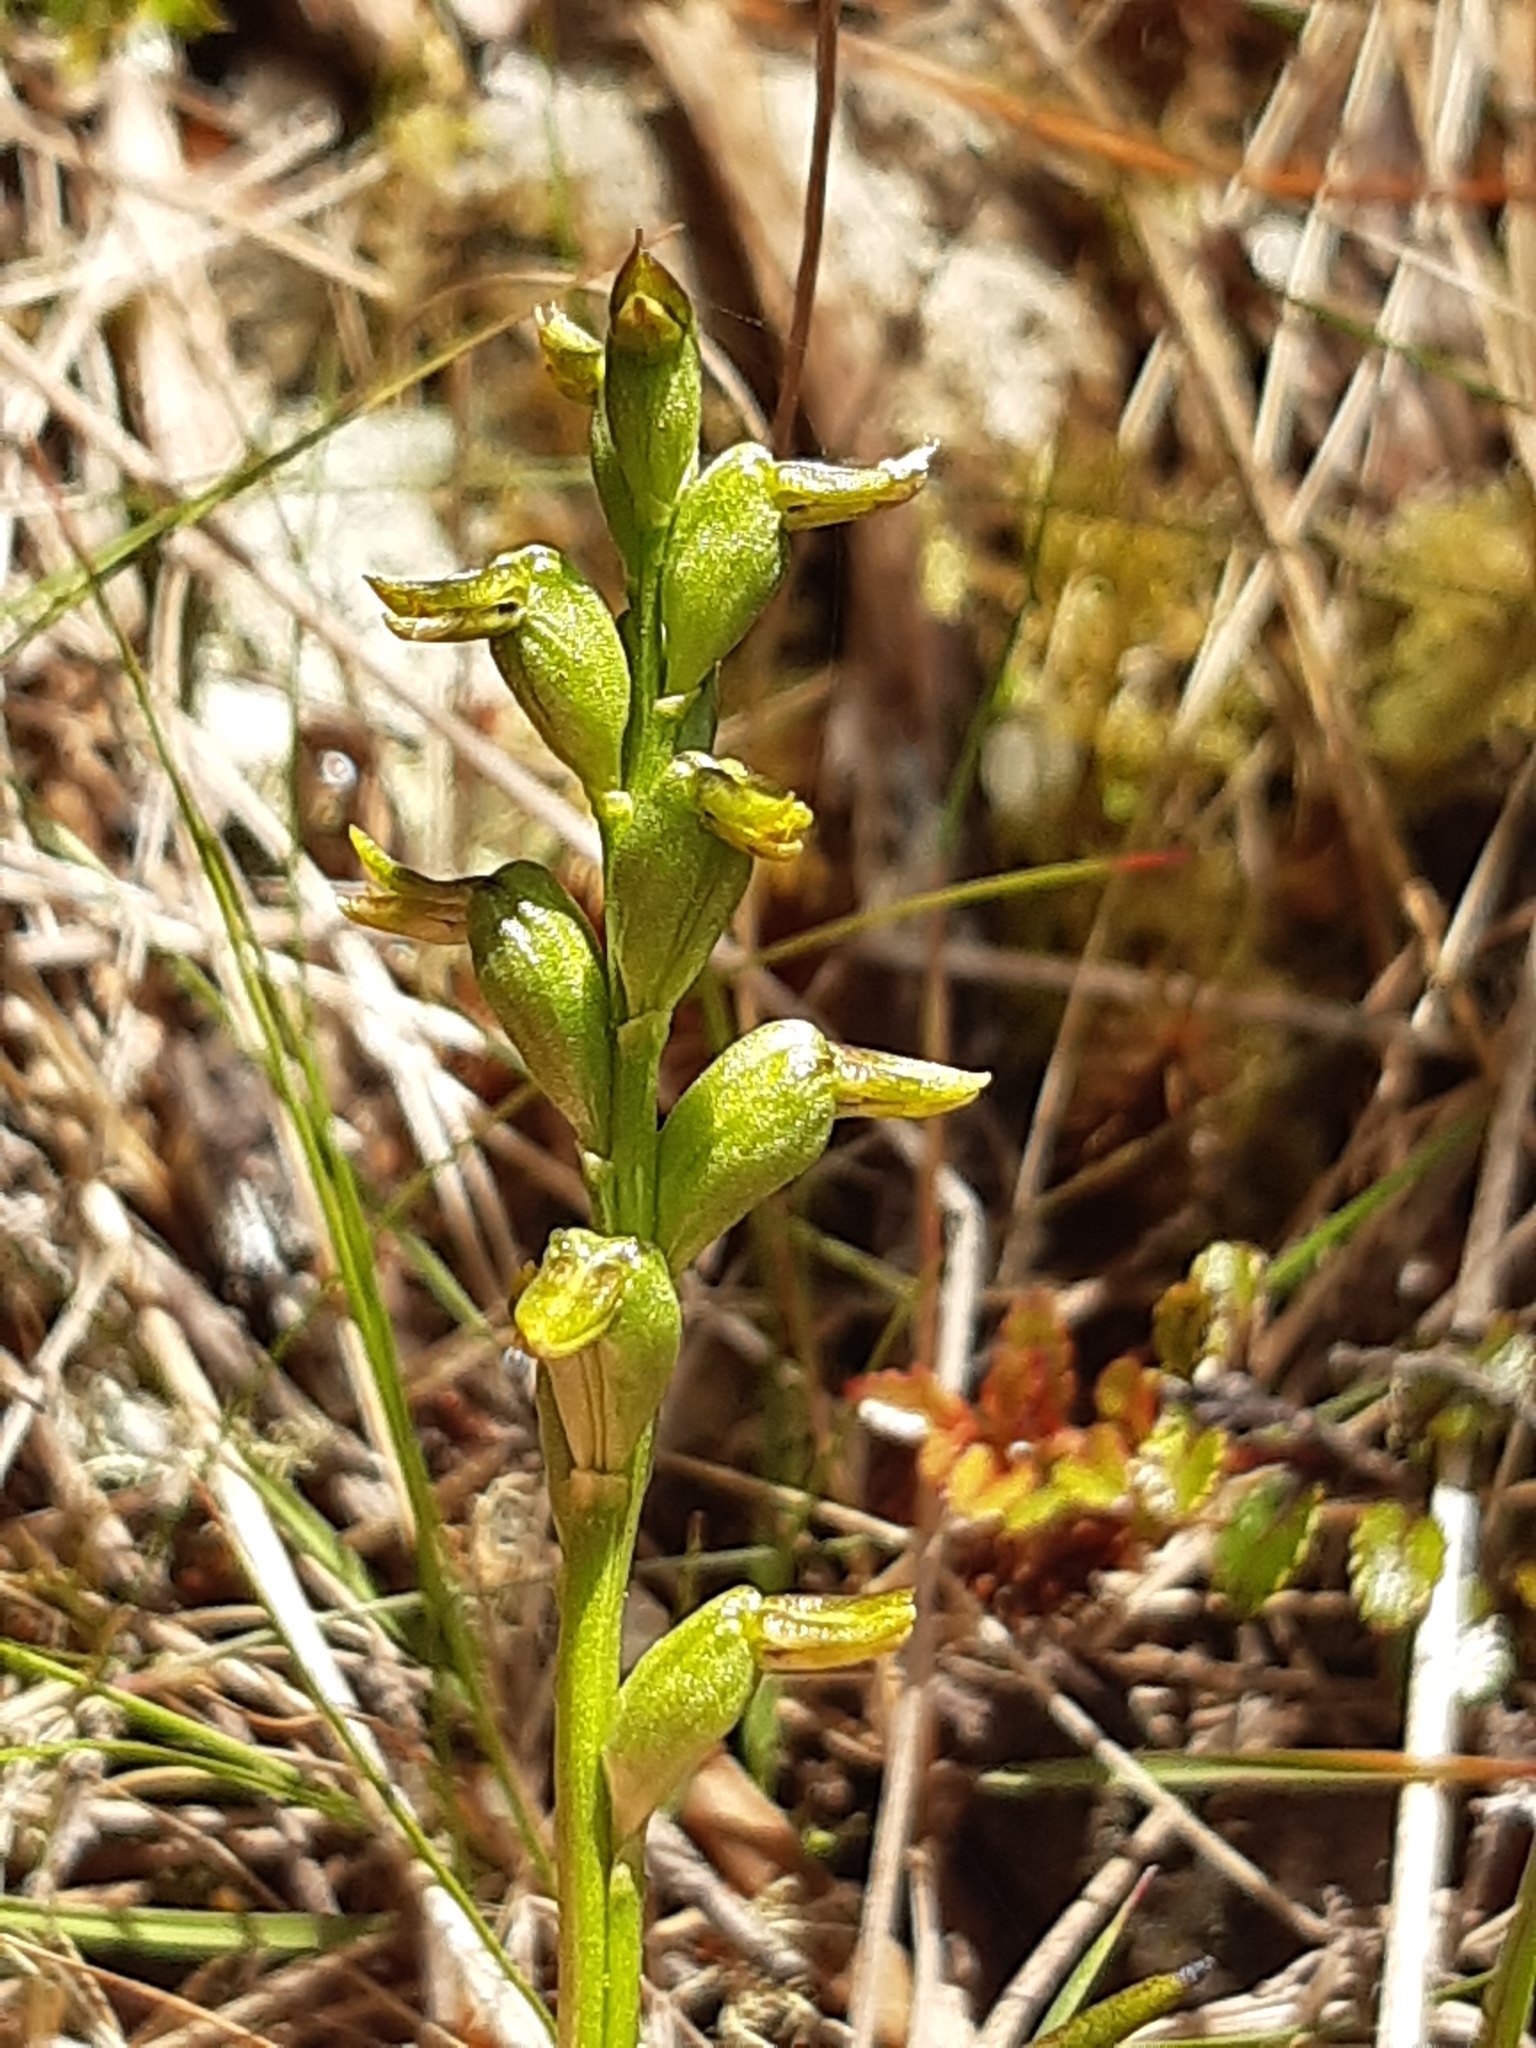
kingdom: Plantae
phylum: Tracheophyta
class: Liliopsida
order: Asparagales
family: Orchidaceae
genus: Prasophyllum
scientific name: Prasophyllum colensoi
